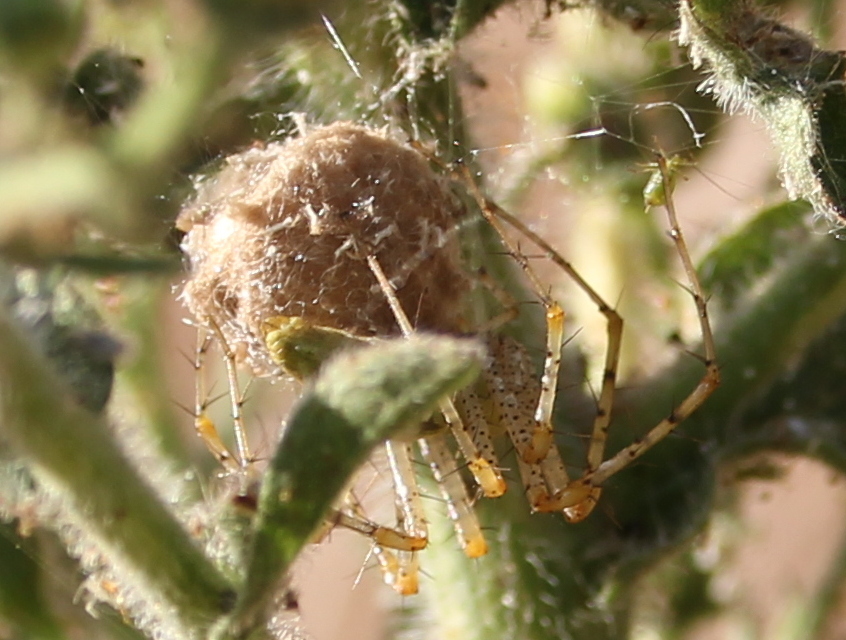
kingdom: Animalia
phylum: Arthropoda
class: Arachnida
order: Araneae
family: Oxyopidae
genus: Peucetia
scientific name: Peucetia viridans
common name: Lynx spiders
